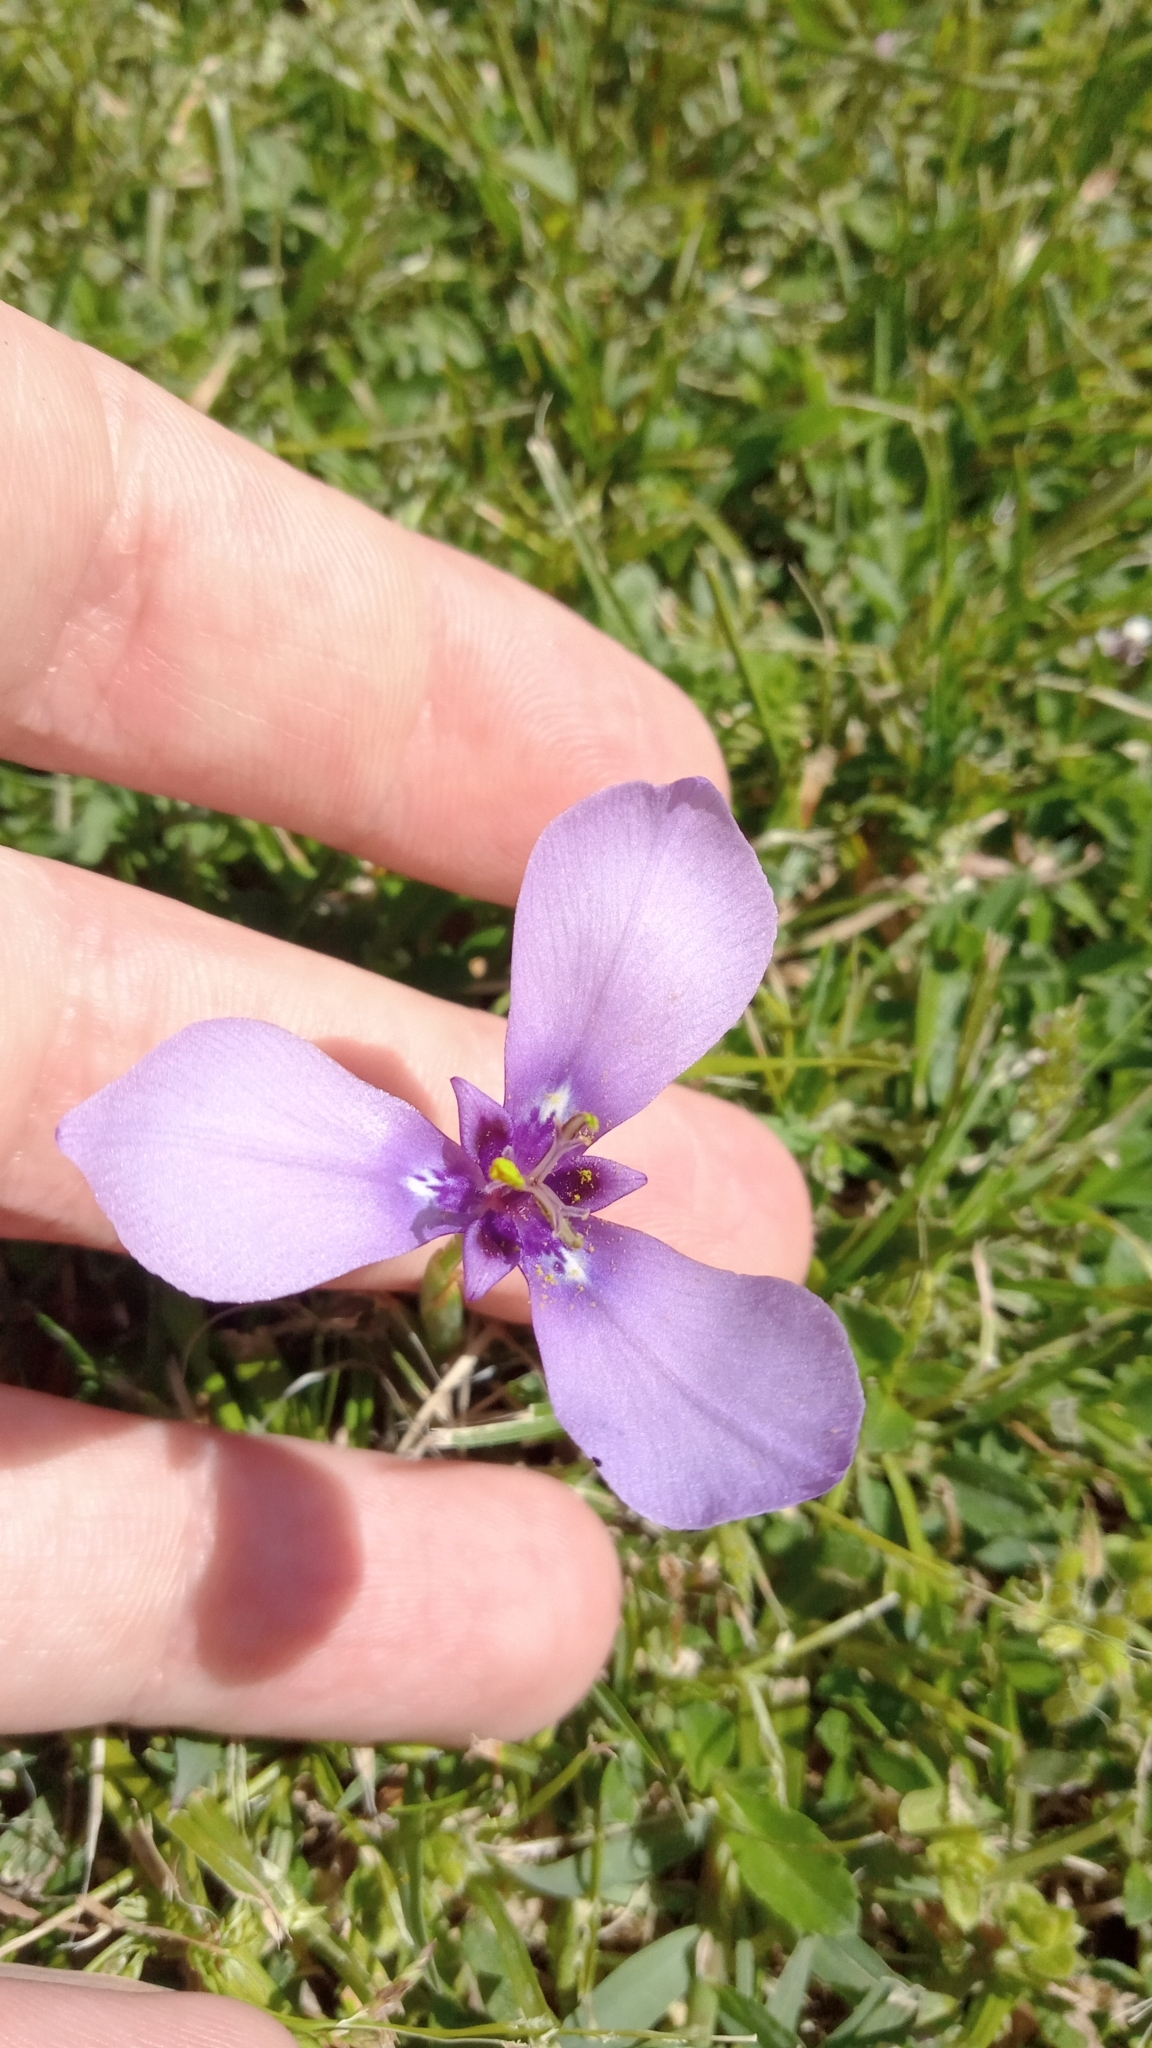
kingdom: Plantae
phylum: Tracheophyta
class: Liliopsida
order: Asparagales
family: Iridaceae
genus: Herbertia
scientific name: Herbertia lahue
